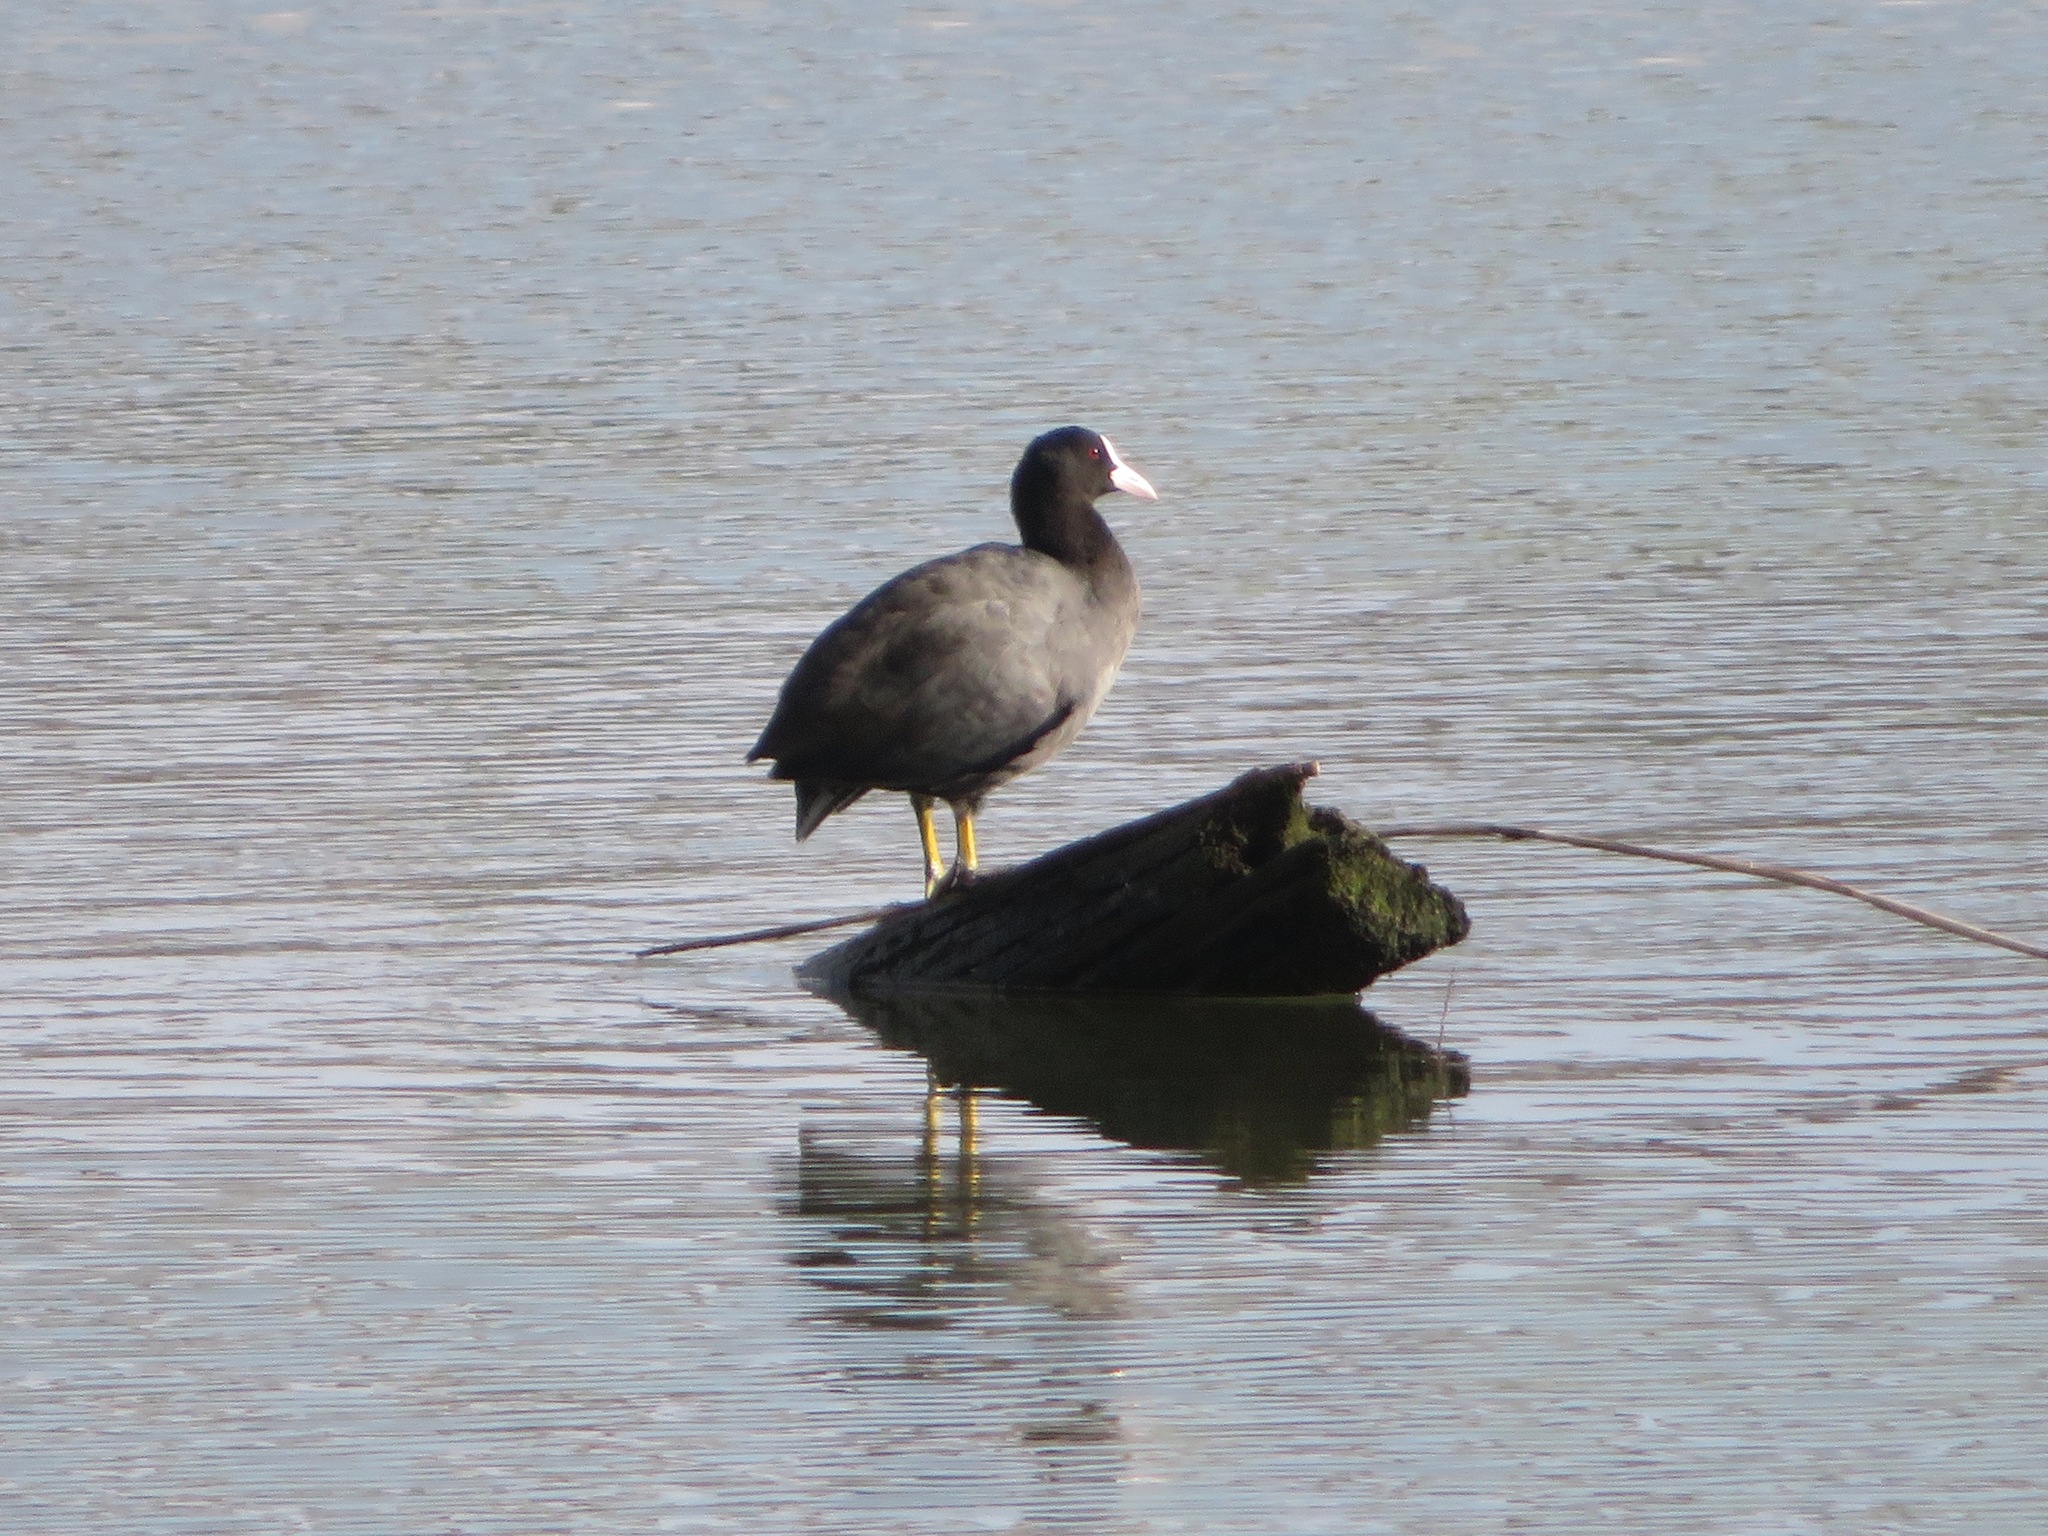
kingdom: Animalia
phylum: Chordata
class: Aves
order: Gruiformes
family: Rallidae
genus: Fulica
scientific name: Fulica atra
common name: Eurasian coot
